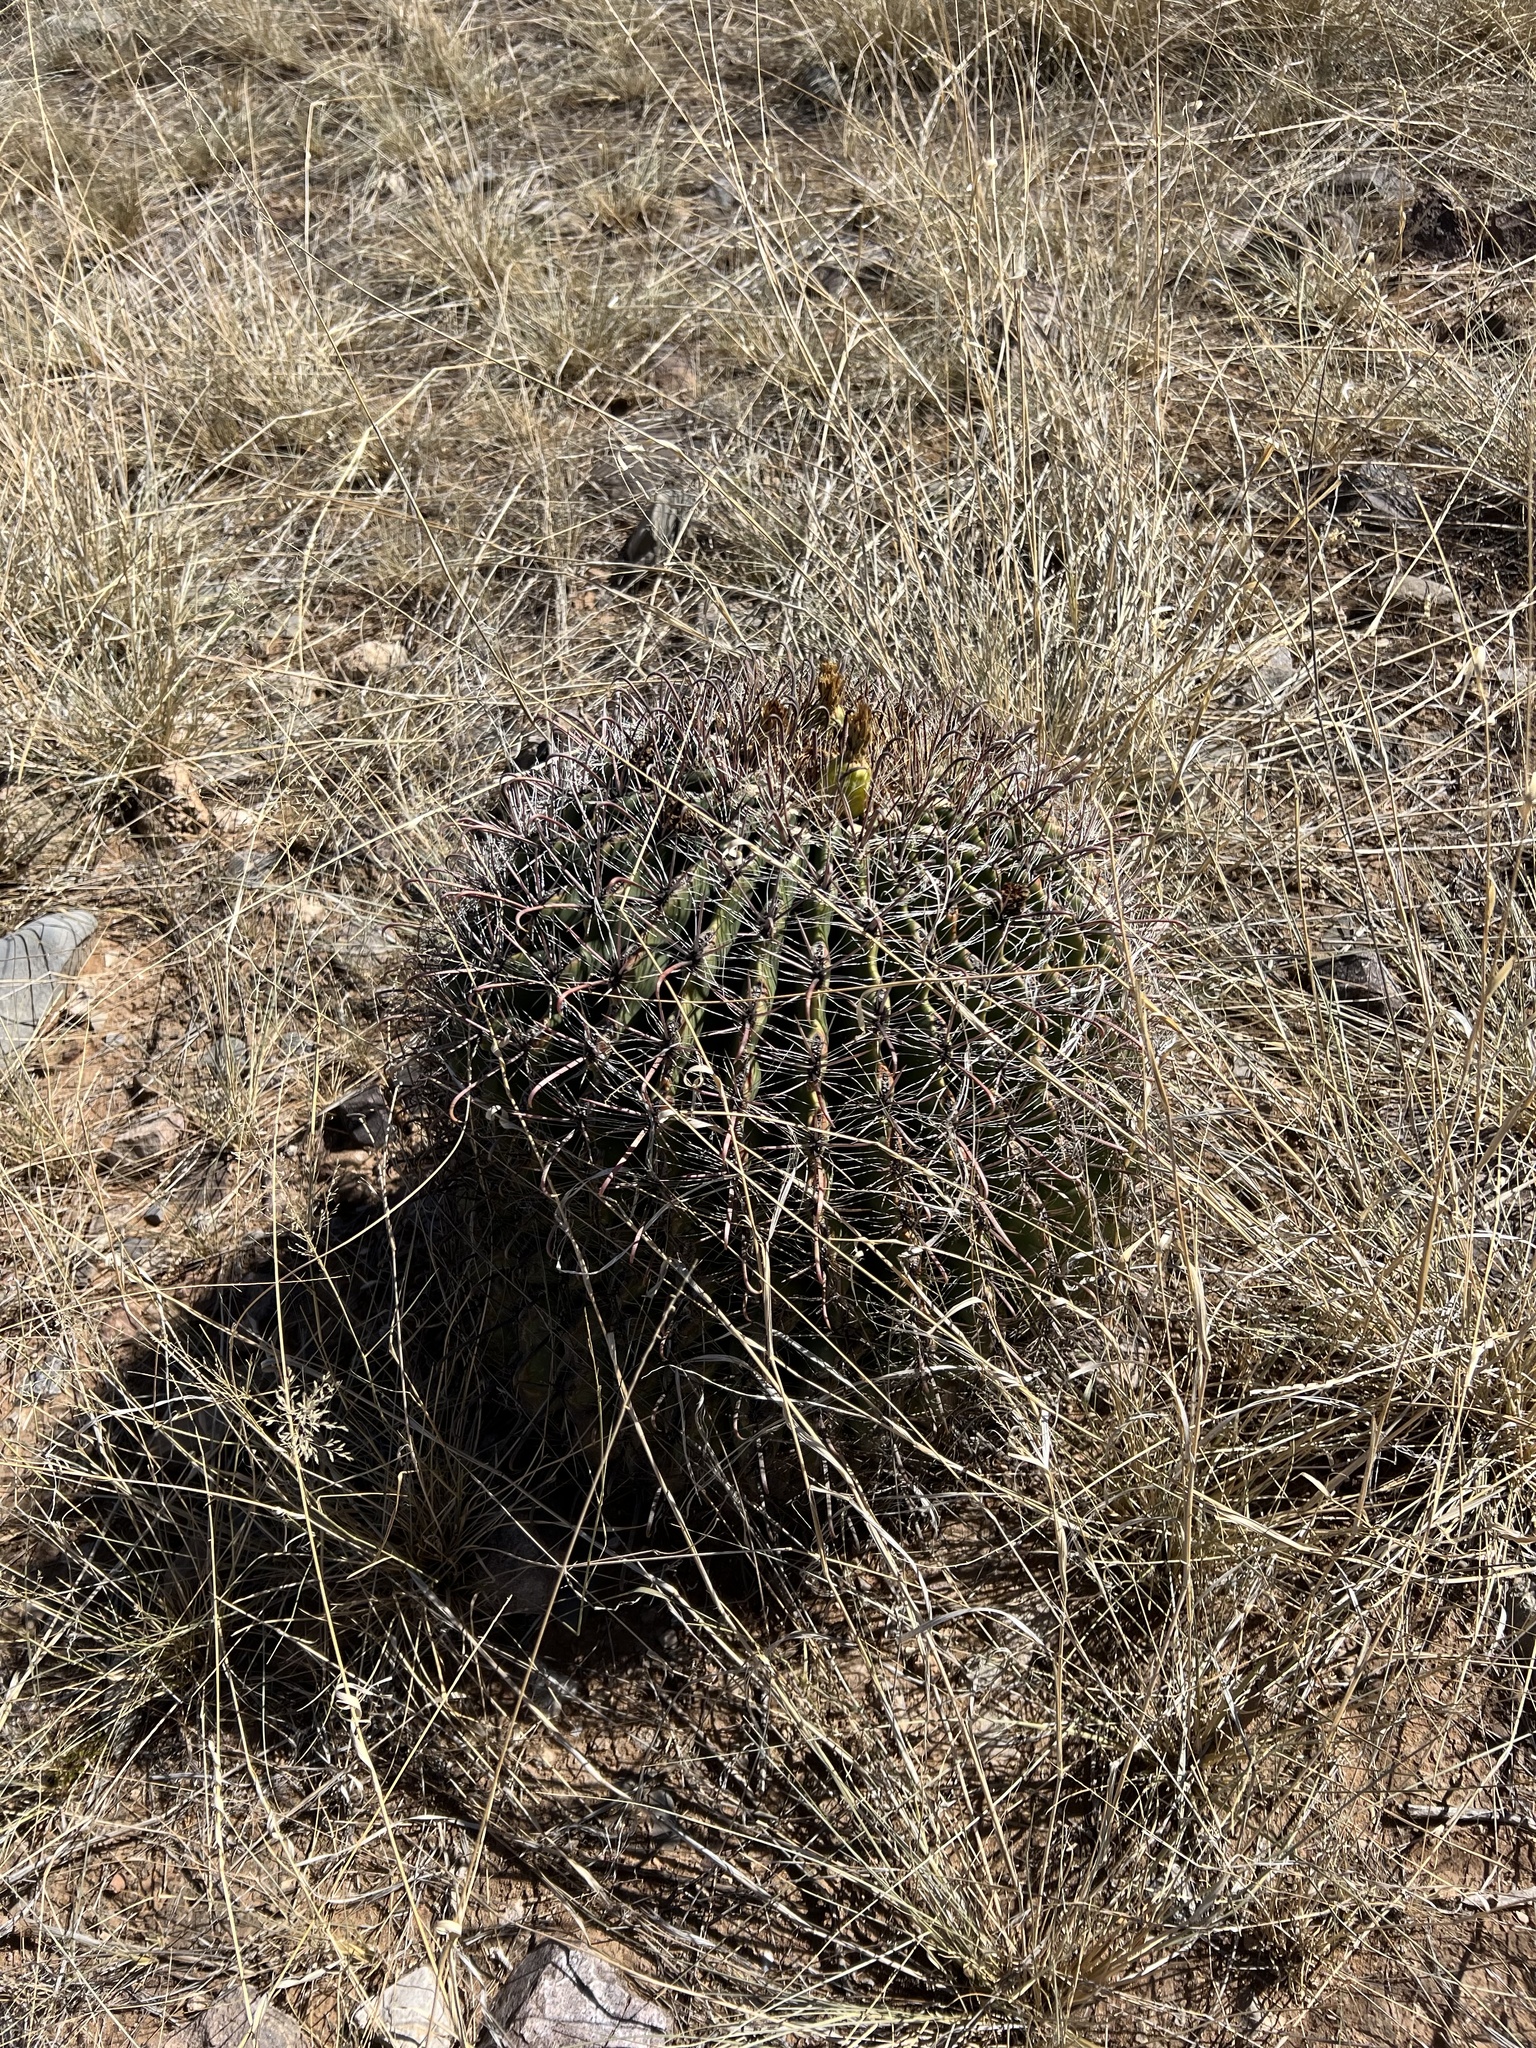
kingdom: Plantae
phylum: Tracheophyta
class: Magnoliopsida
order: Caryophyllales
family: Cactaceae
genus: Ferocactus
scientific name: Ferocactus wislizeni
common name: Candy barrel cactus
